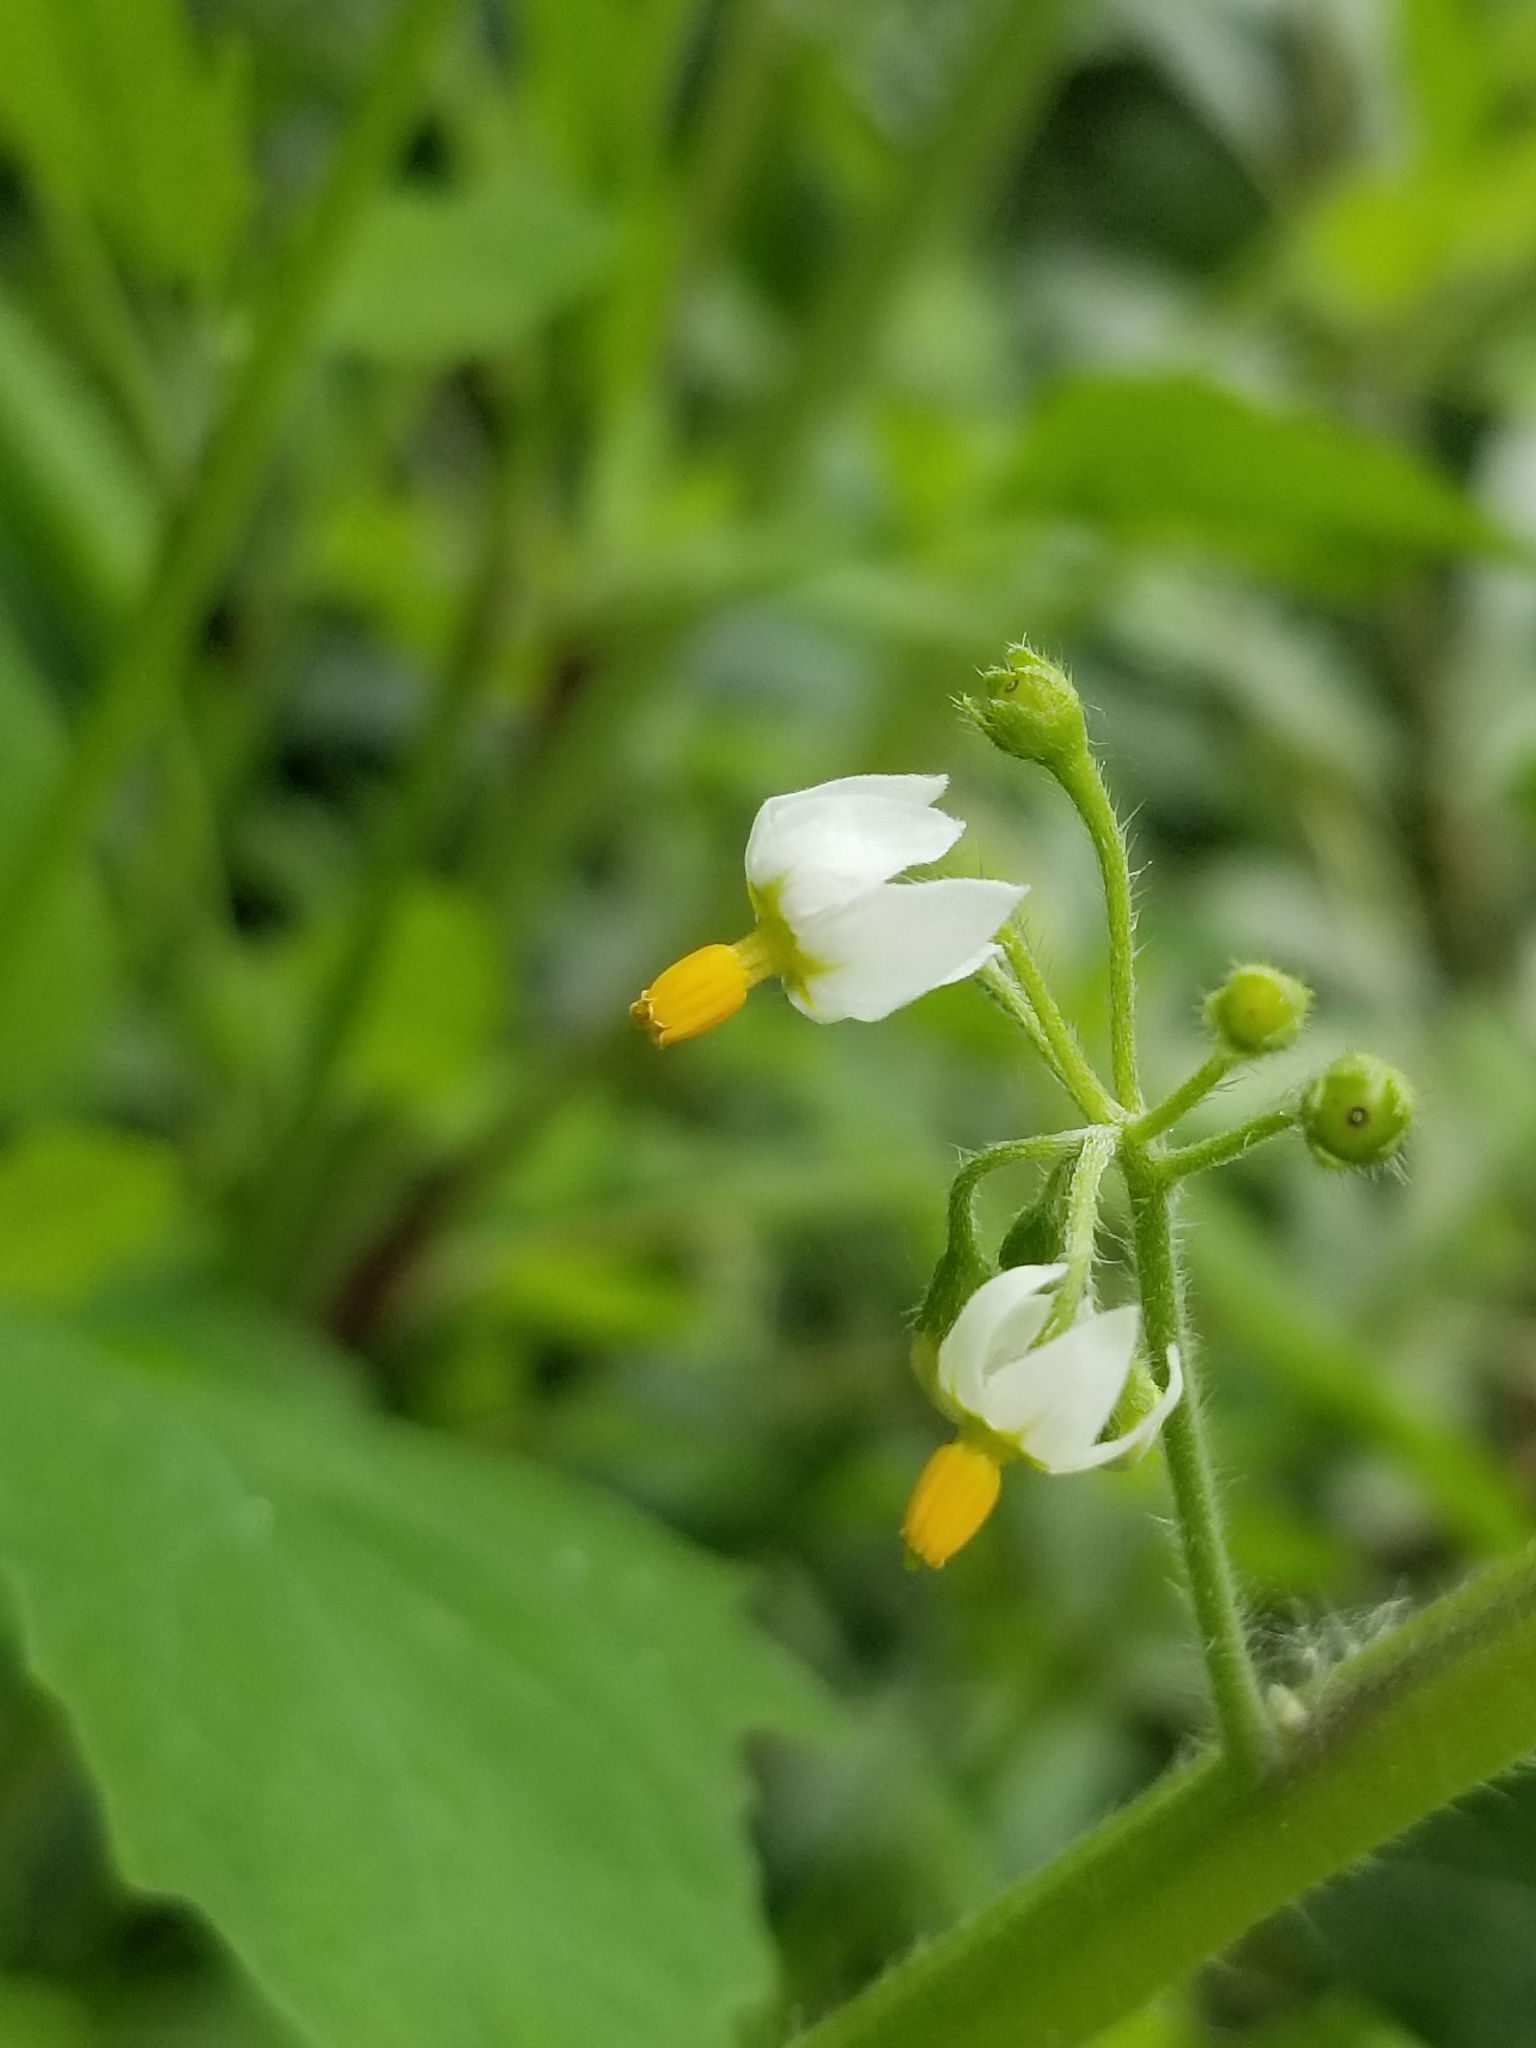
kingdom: Plantae
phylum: Tracheophyta
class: Magnoliopsida
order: Solanales
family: Solanaceae
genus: Solanum
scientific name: Solanum nigrum
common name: Black nightshade
